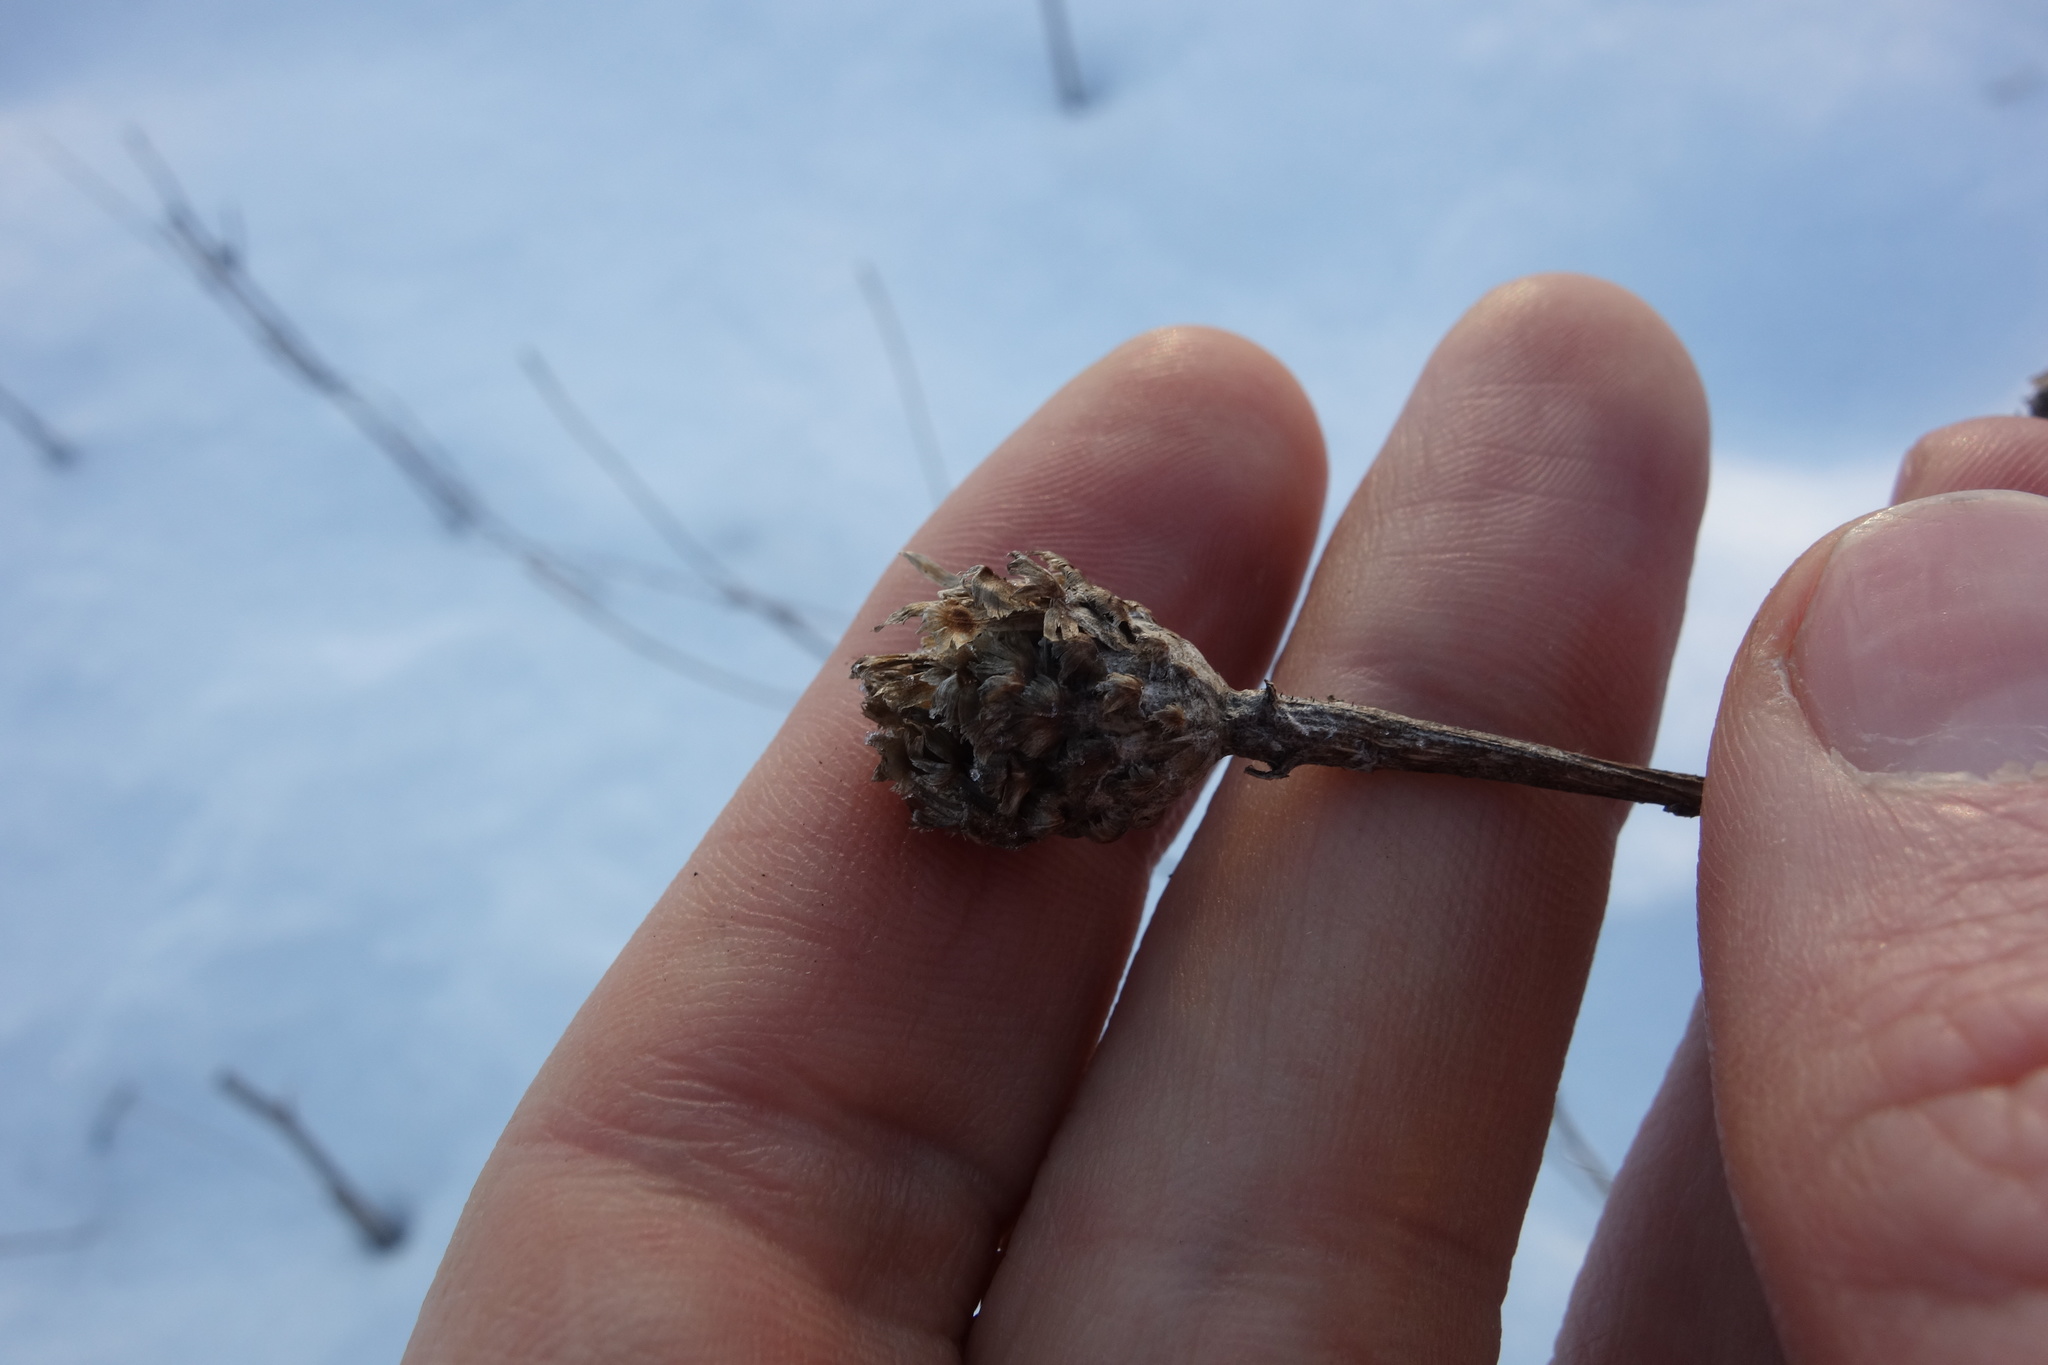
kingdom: Plantae
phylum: Tracheophyta
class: Magnoliopsida
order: Asterales
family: Asteraceae
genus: Centaurea
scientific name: Centaurea jacea
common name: Brown knapweed
